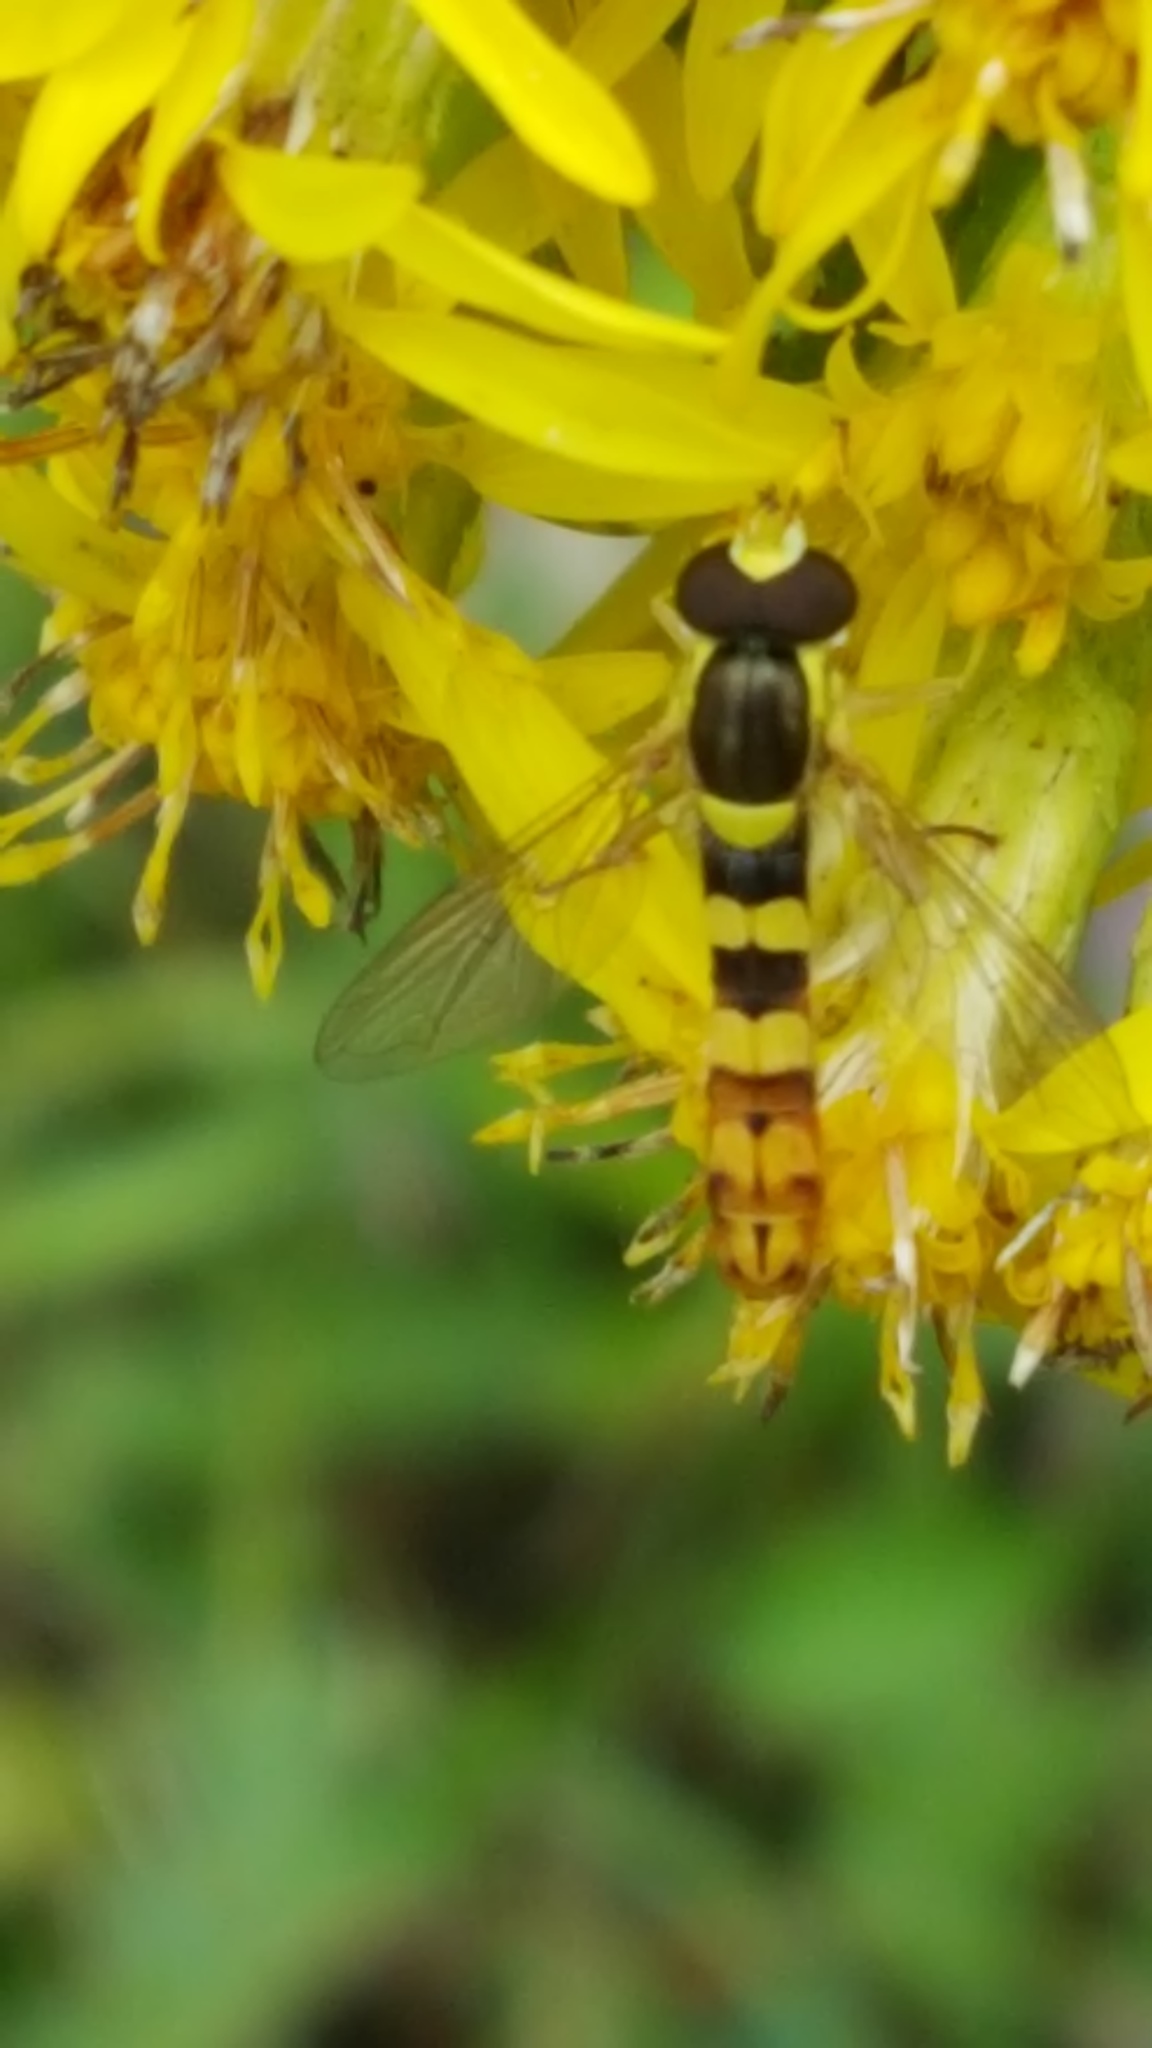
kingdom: Animalia
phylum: Arthropoda
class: Insecta
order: Diptera
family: Syrphidae
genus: Sphaerophoria
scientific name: Sphaerophoria scripta
